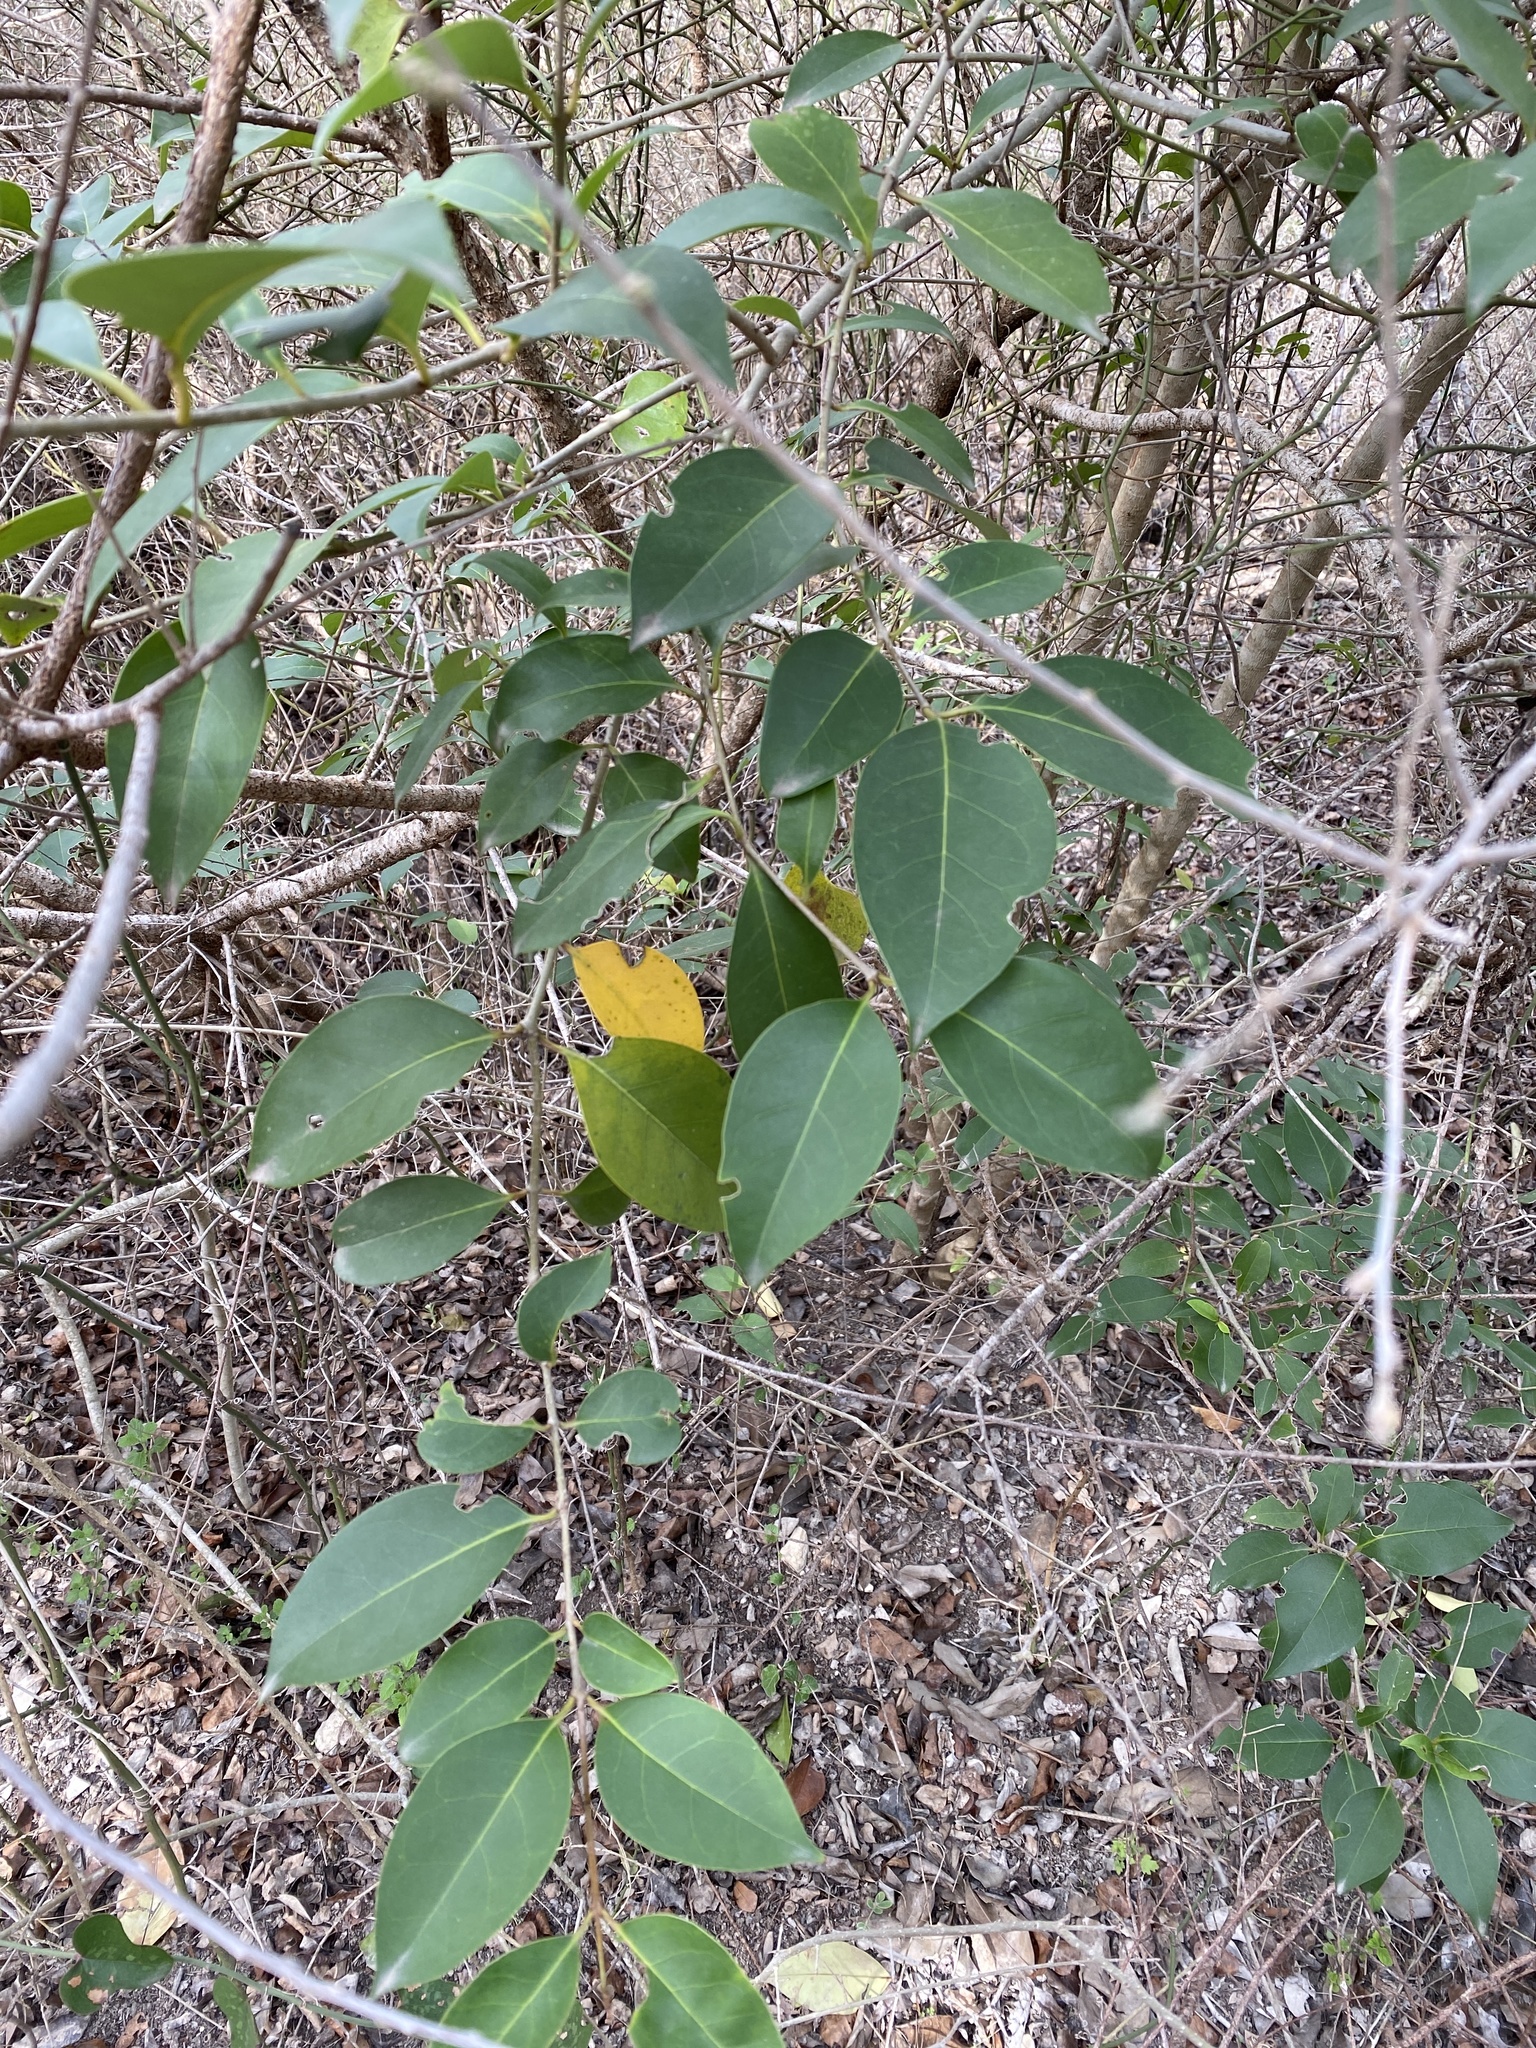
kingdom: Plantae
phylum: Tracheophyta
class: Magnoliopsida
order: Lamiales
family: Oleaceae
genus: Ligustrum
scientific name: Ligustrum lucidum
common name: Glossy privet
